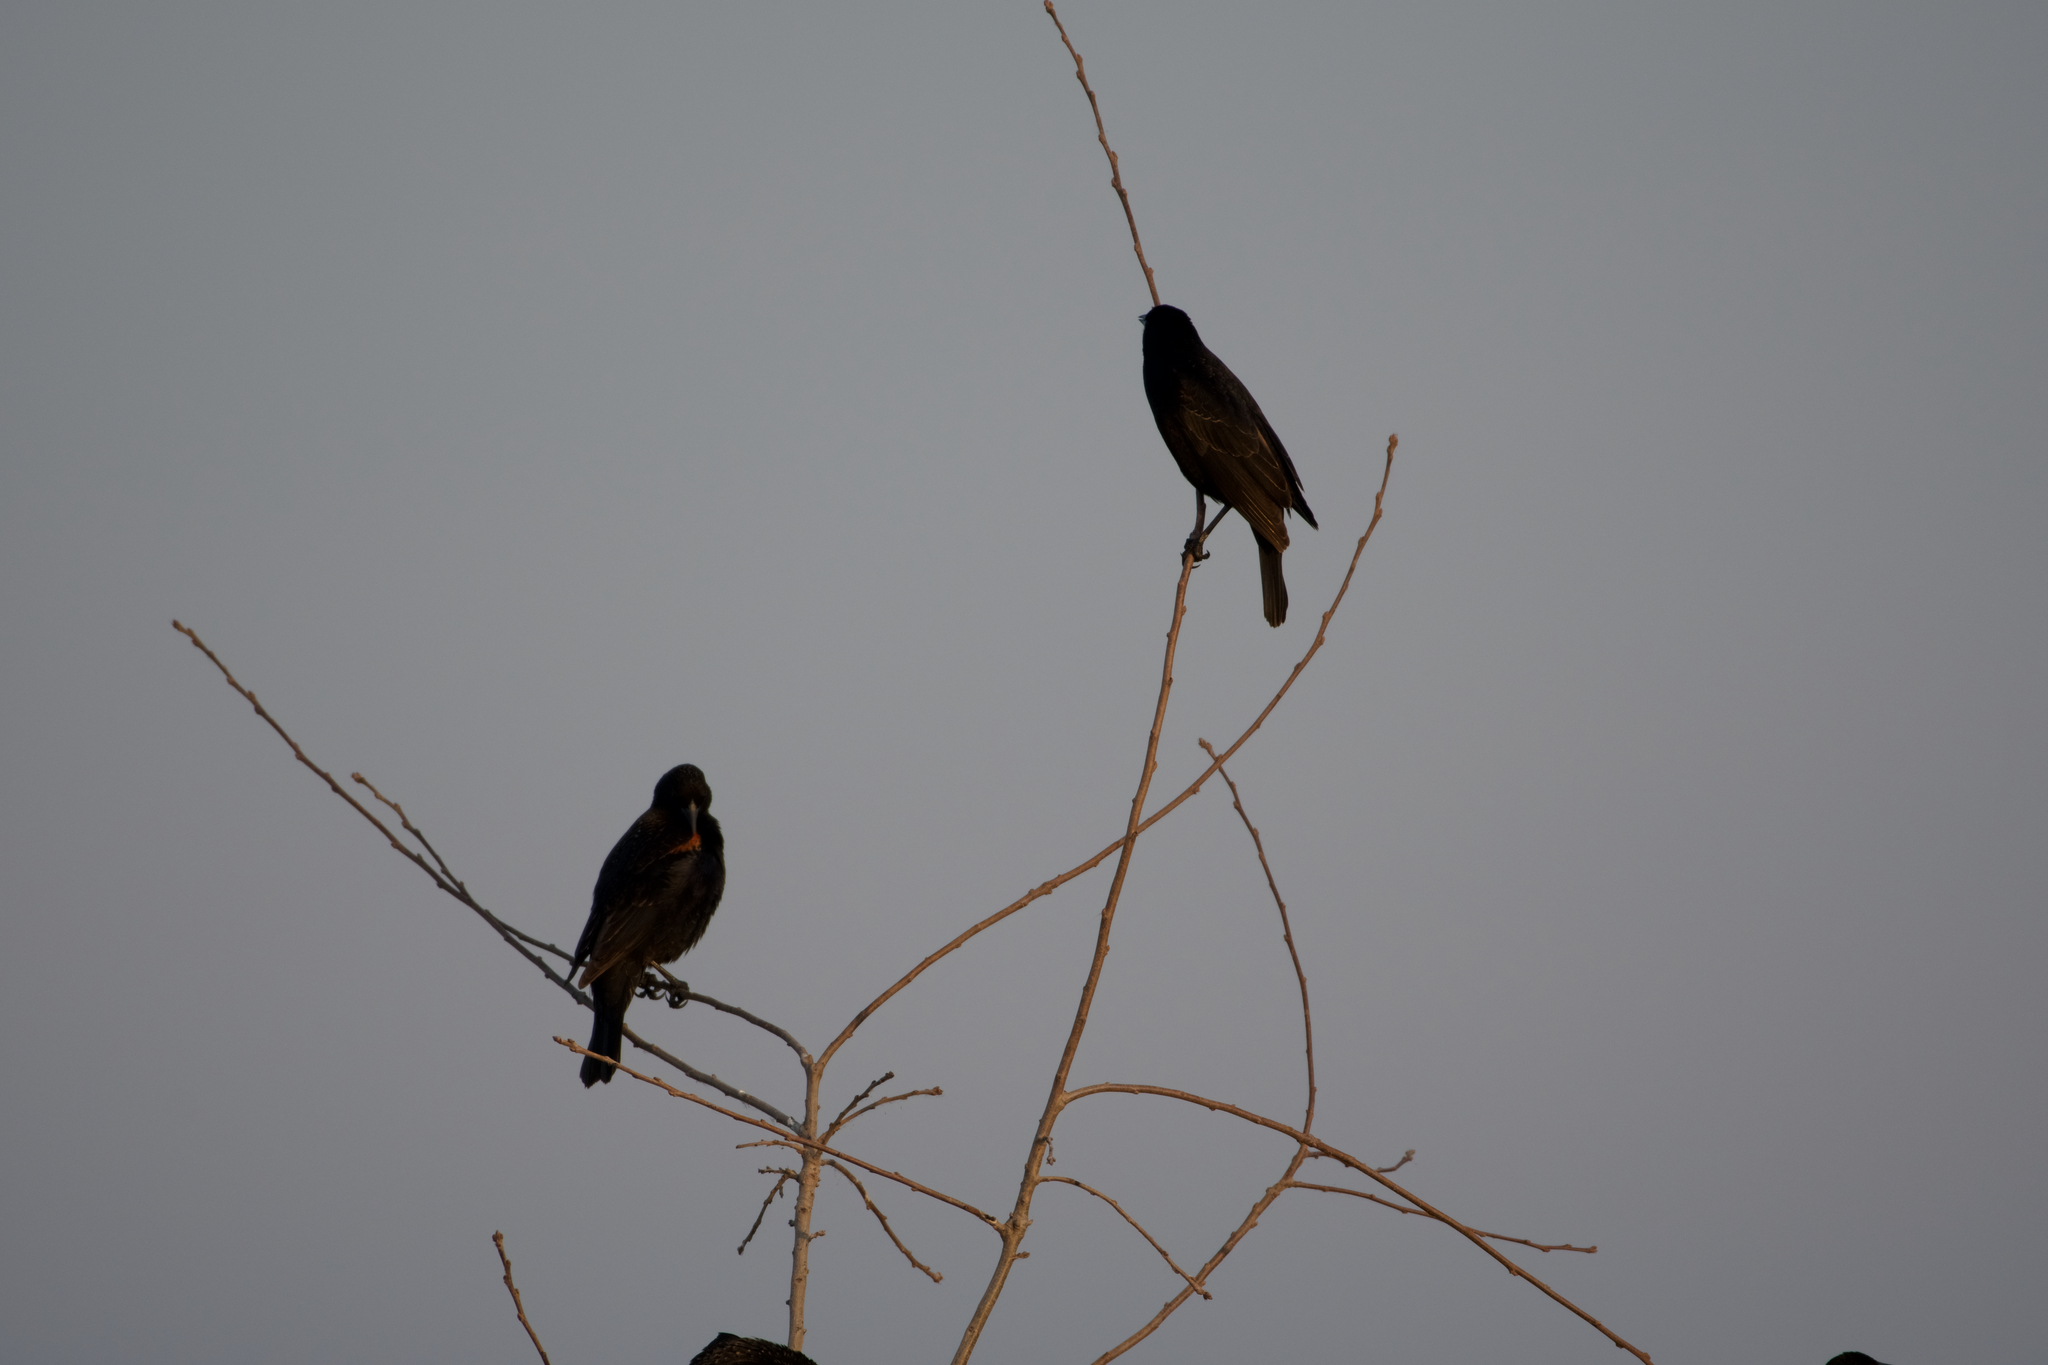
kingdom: Animalia
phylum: Chordata
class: Aves
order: Passeriformes
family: Icteridae
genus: Agelaius
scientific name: Agelaius phoeniceus
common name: Red-winged blackbird
